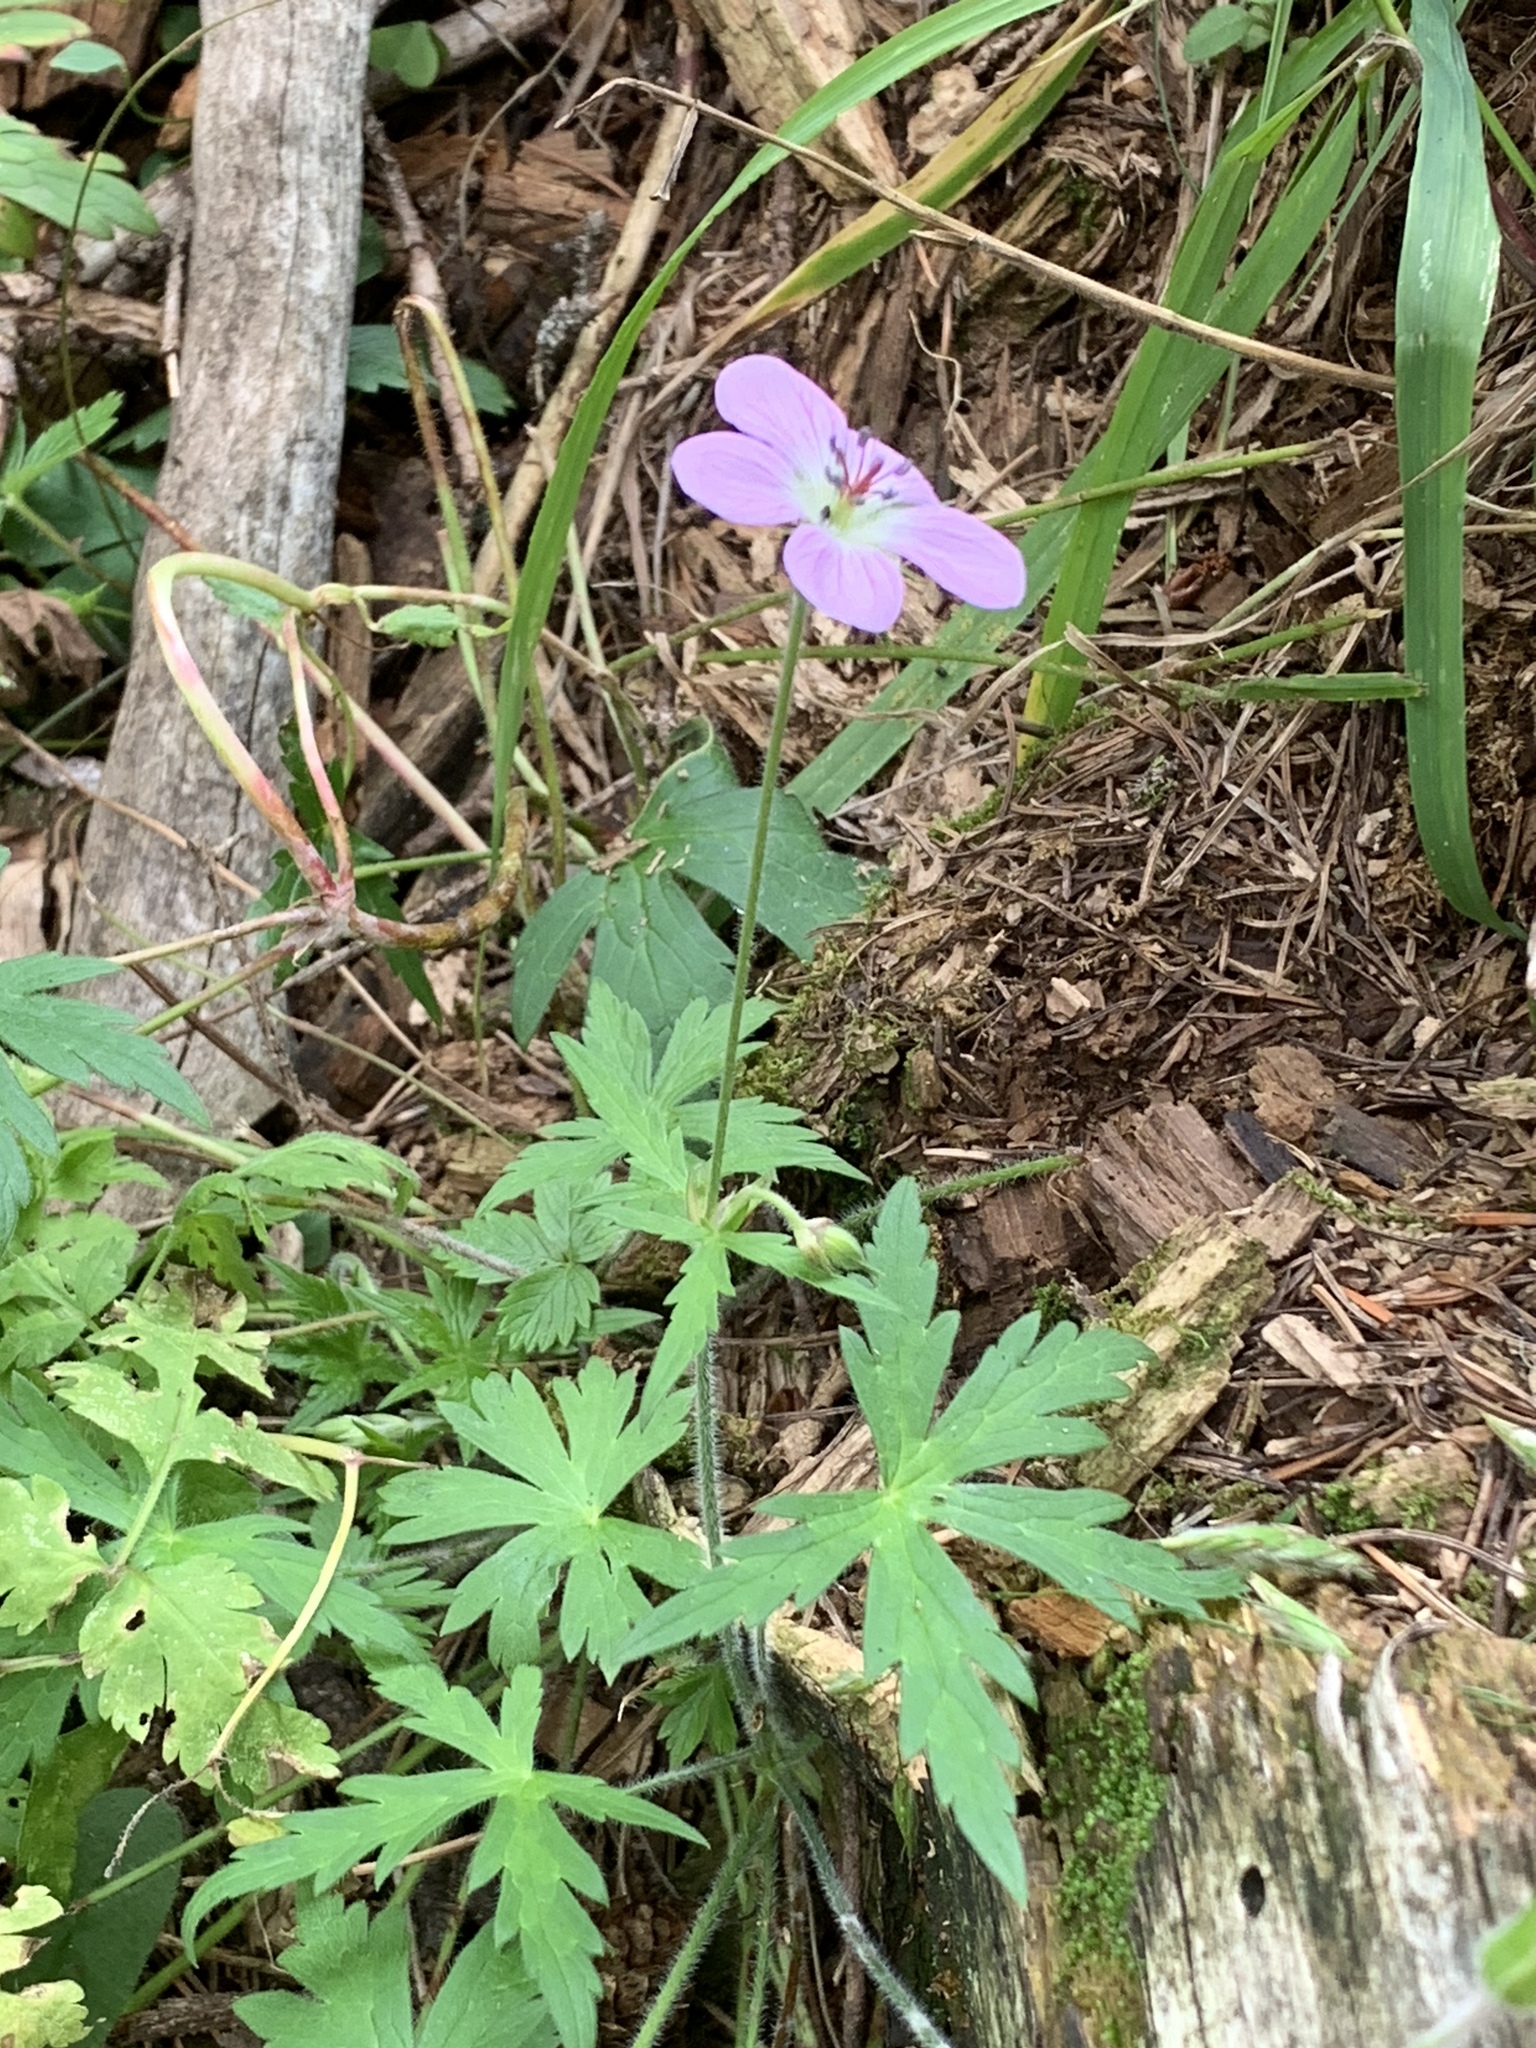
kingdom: Plantae
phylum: Tracheophyta
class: Magnoliopsida
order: Geraniales
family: Geraniaceae
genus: Geranium
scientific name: Geranium richardsonii
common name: Richardson's crane's-bill
